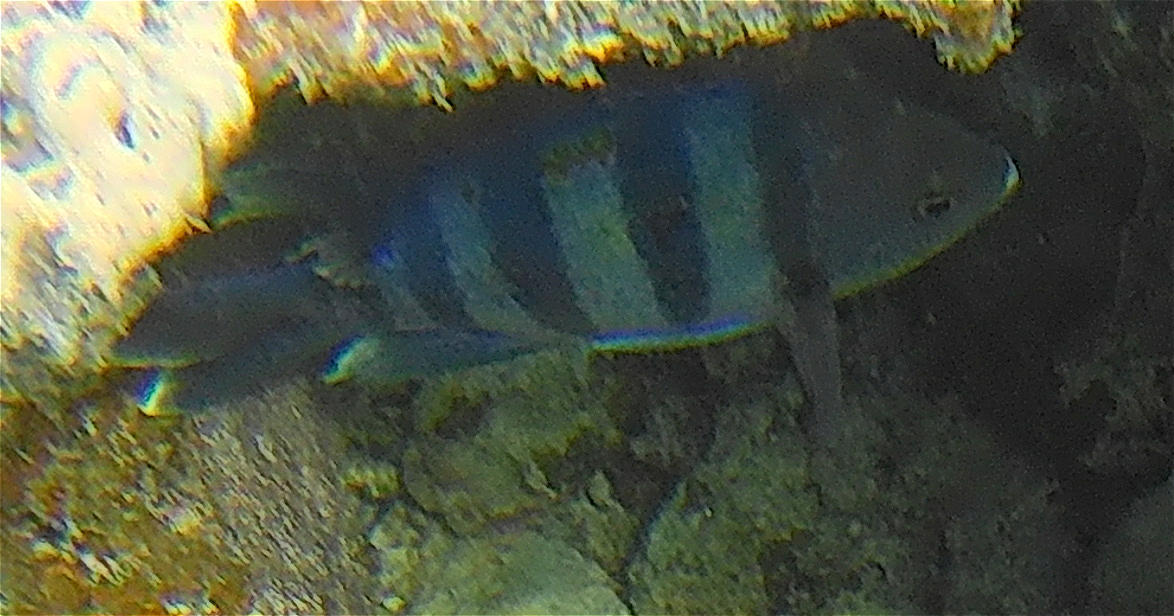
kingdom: Animalia
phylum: Chordata
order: Perciformes
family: Pomacentridae
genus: Abudefduf
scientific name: Abudefduf vaigiensis
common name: Indo-pacific sergeant
